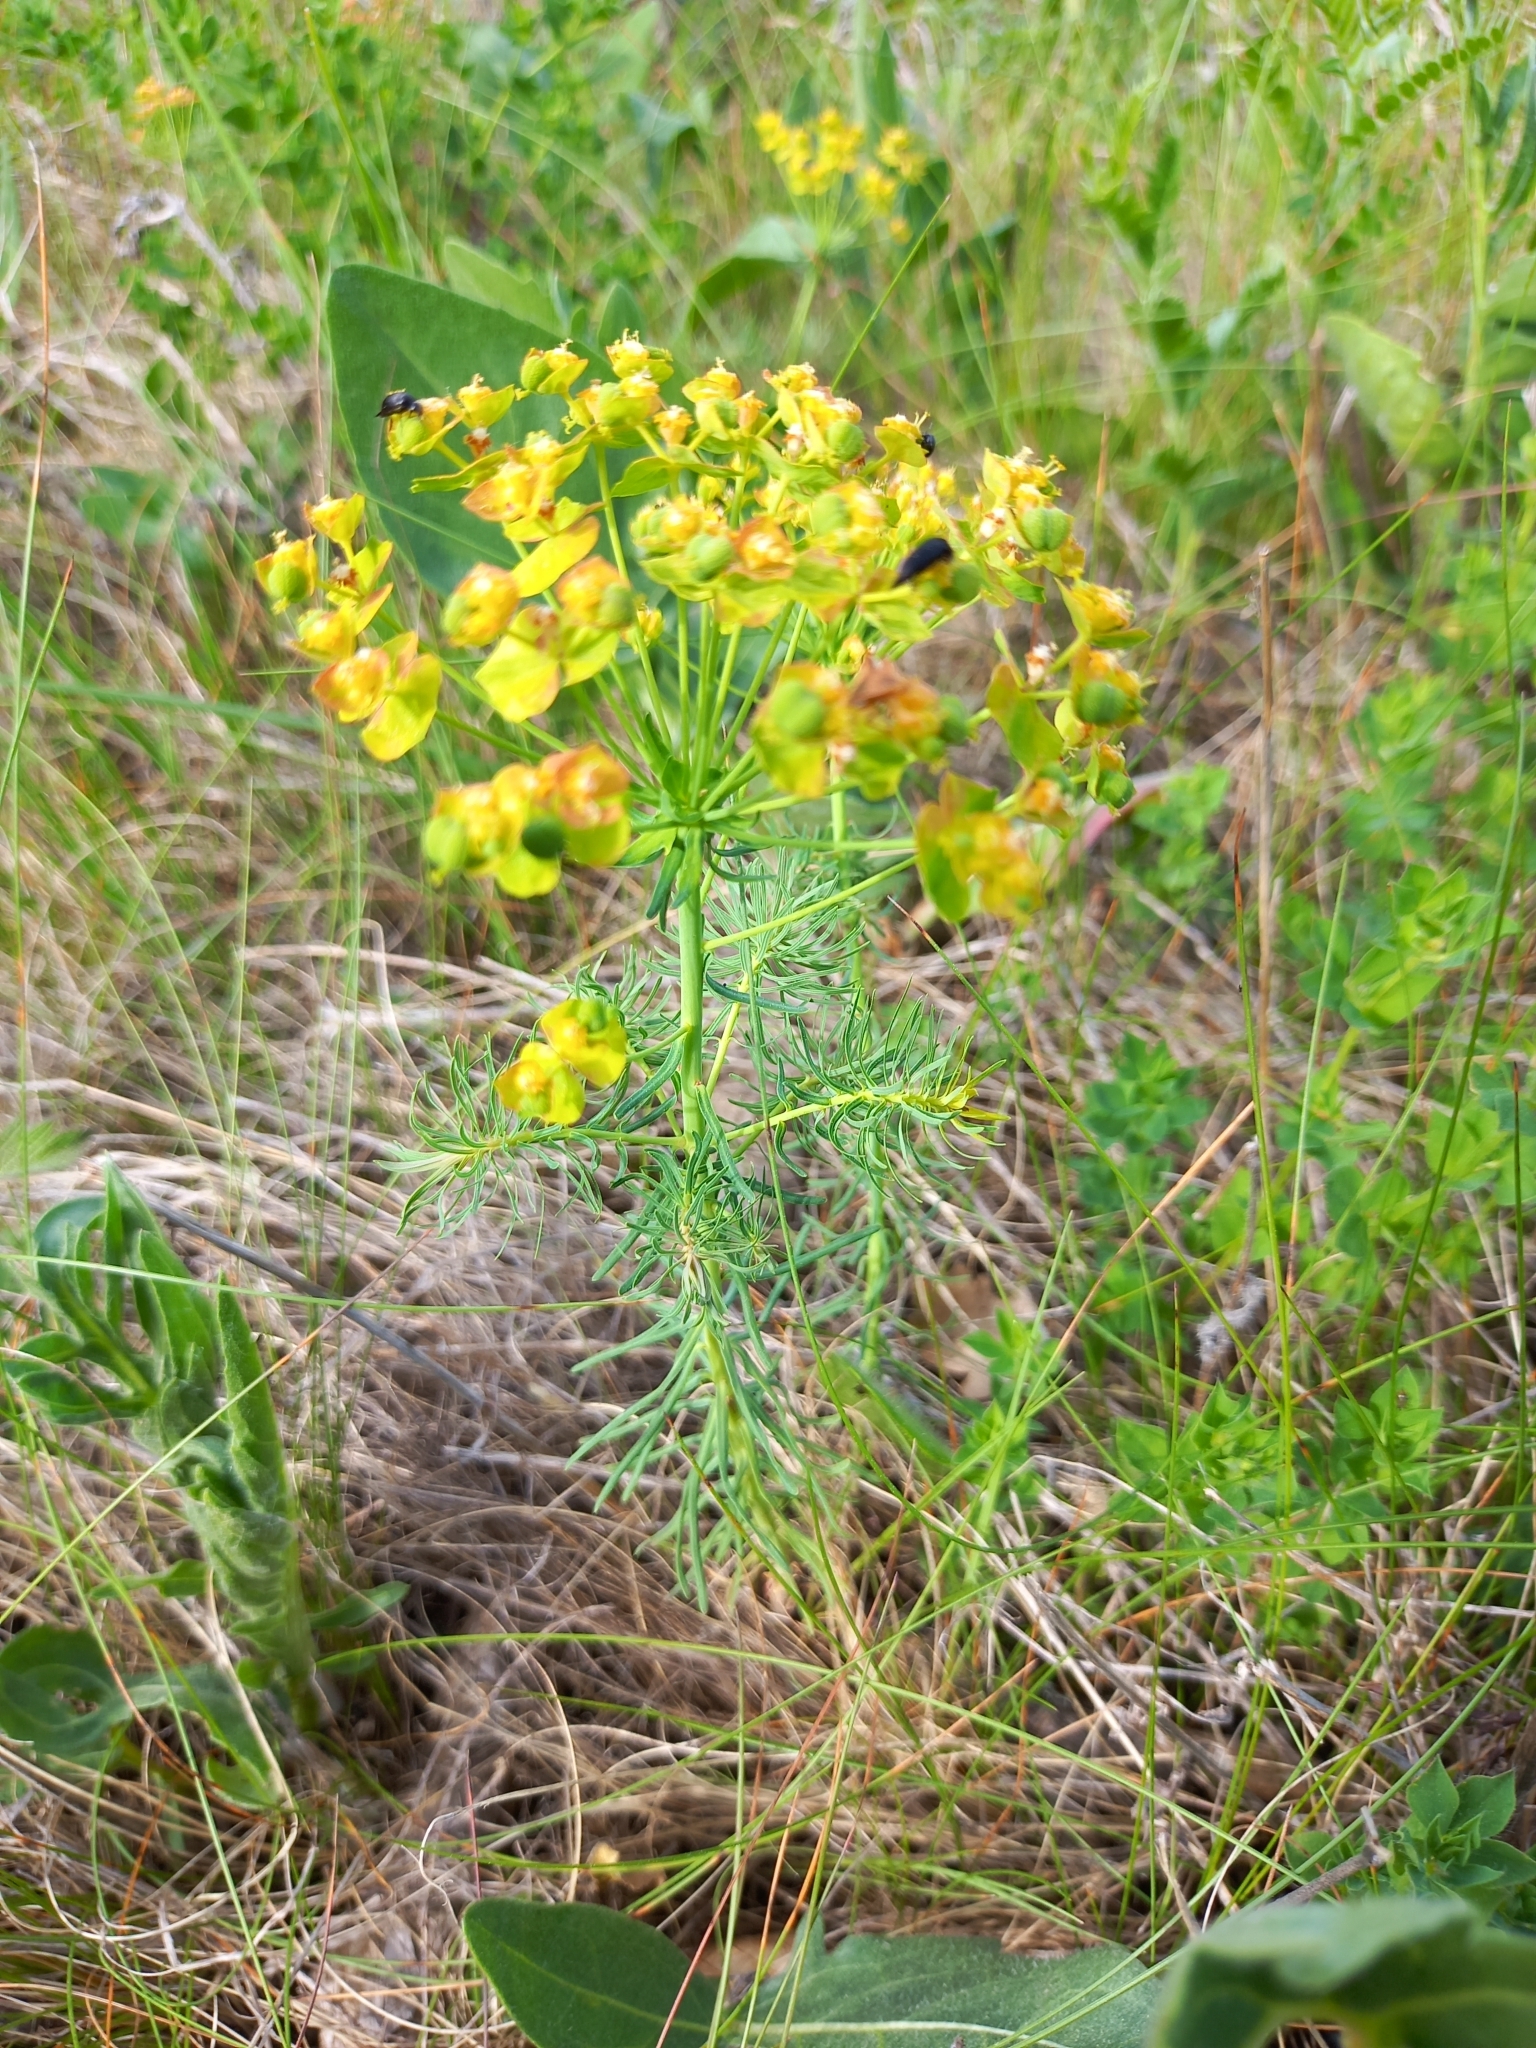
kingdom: Plantae
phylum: Tracheophyta
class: Magnoliopsida
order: Malpighiales
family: Euphorbiaceae
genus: Euphorbia
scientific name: Euphorbia cyparissias
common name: Cypress spurge
